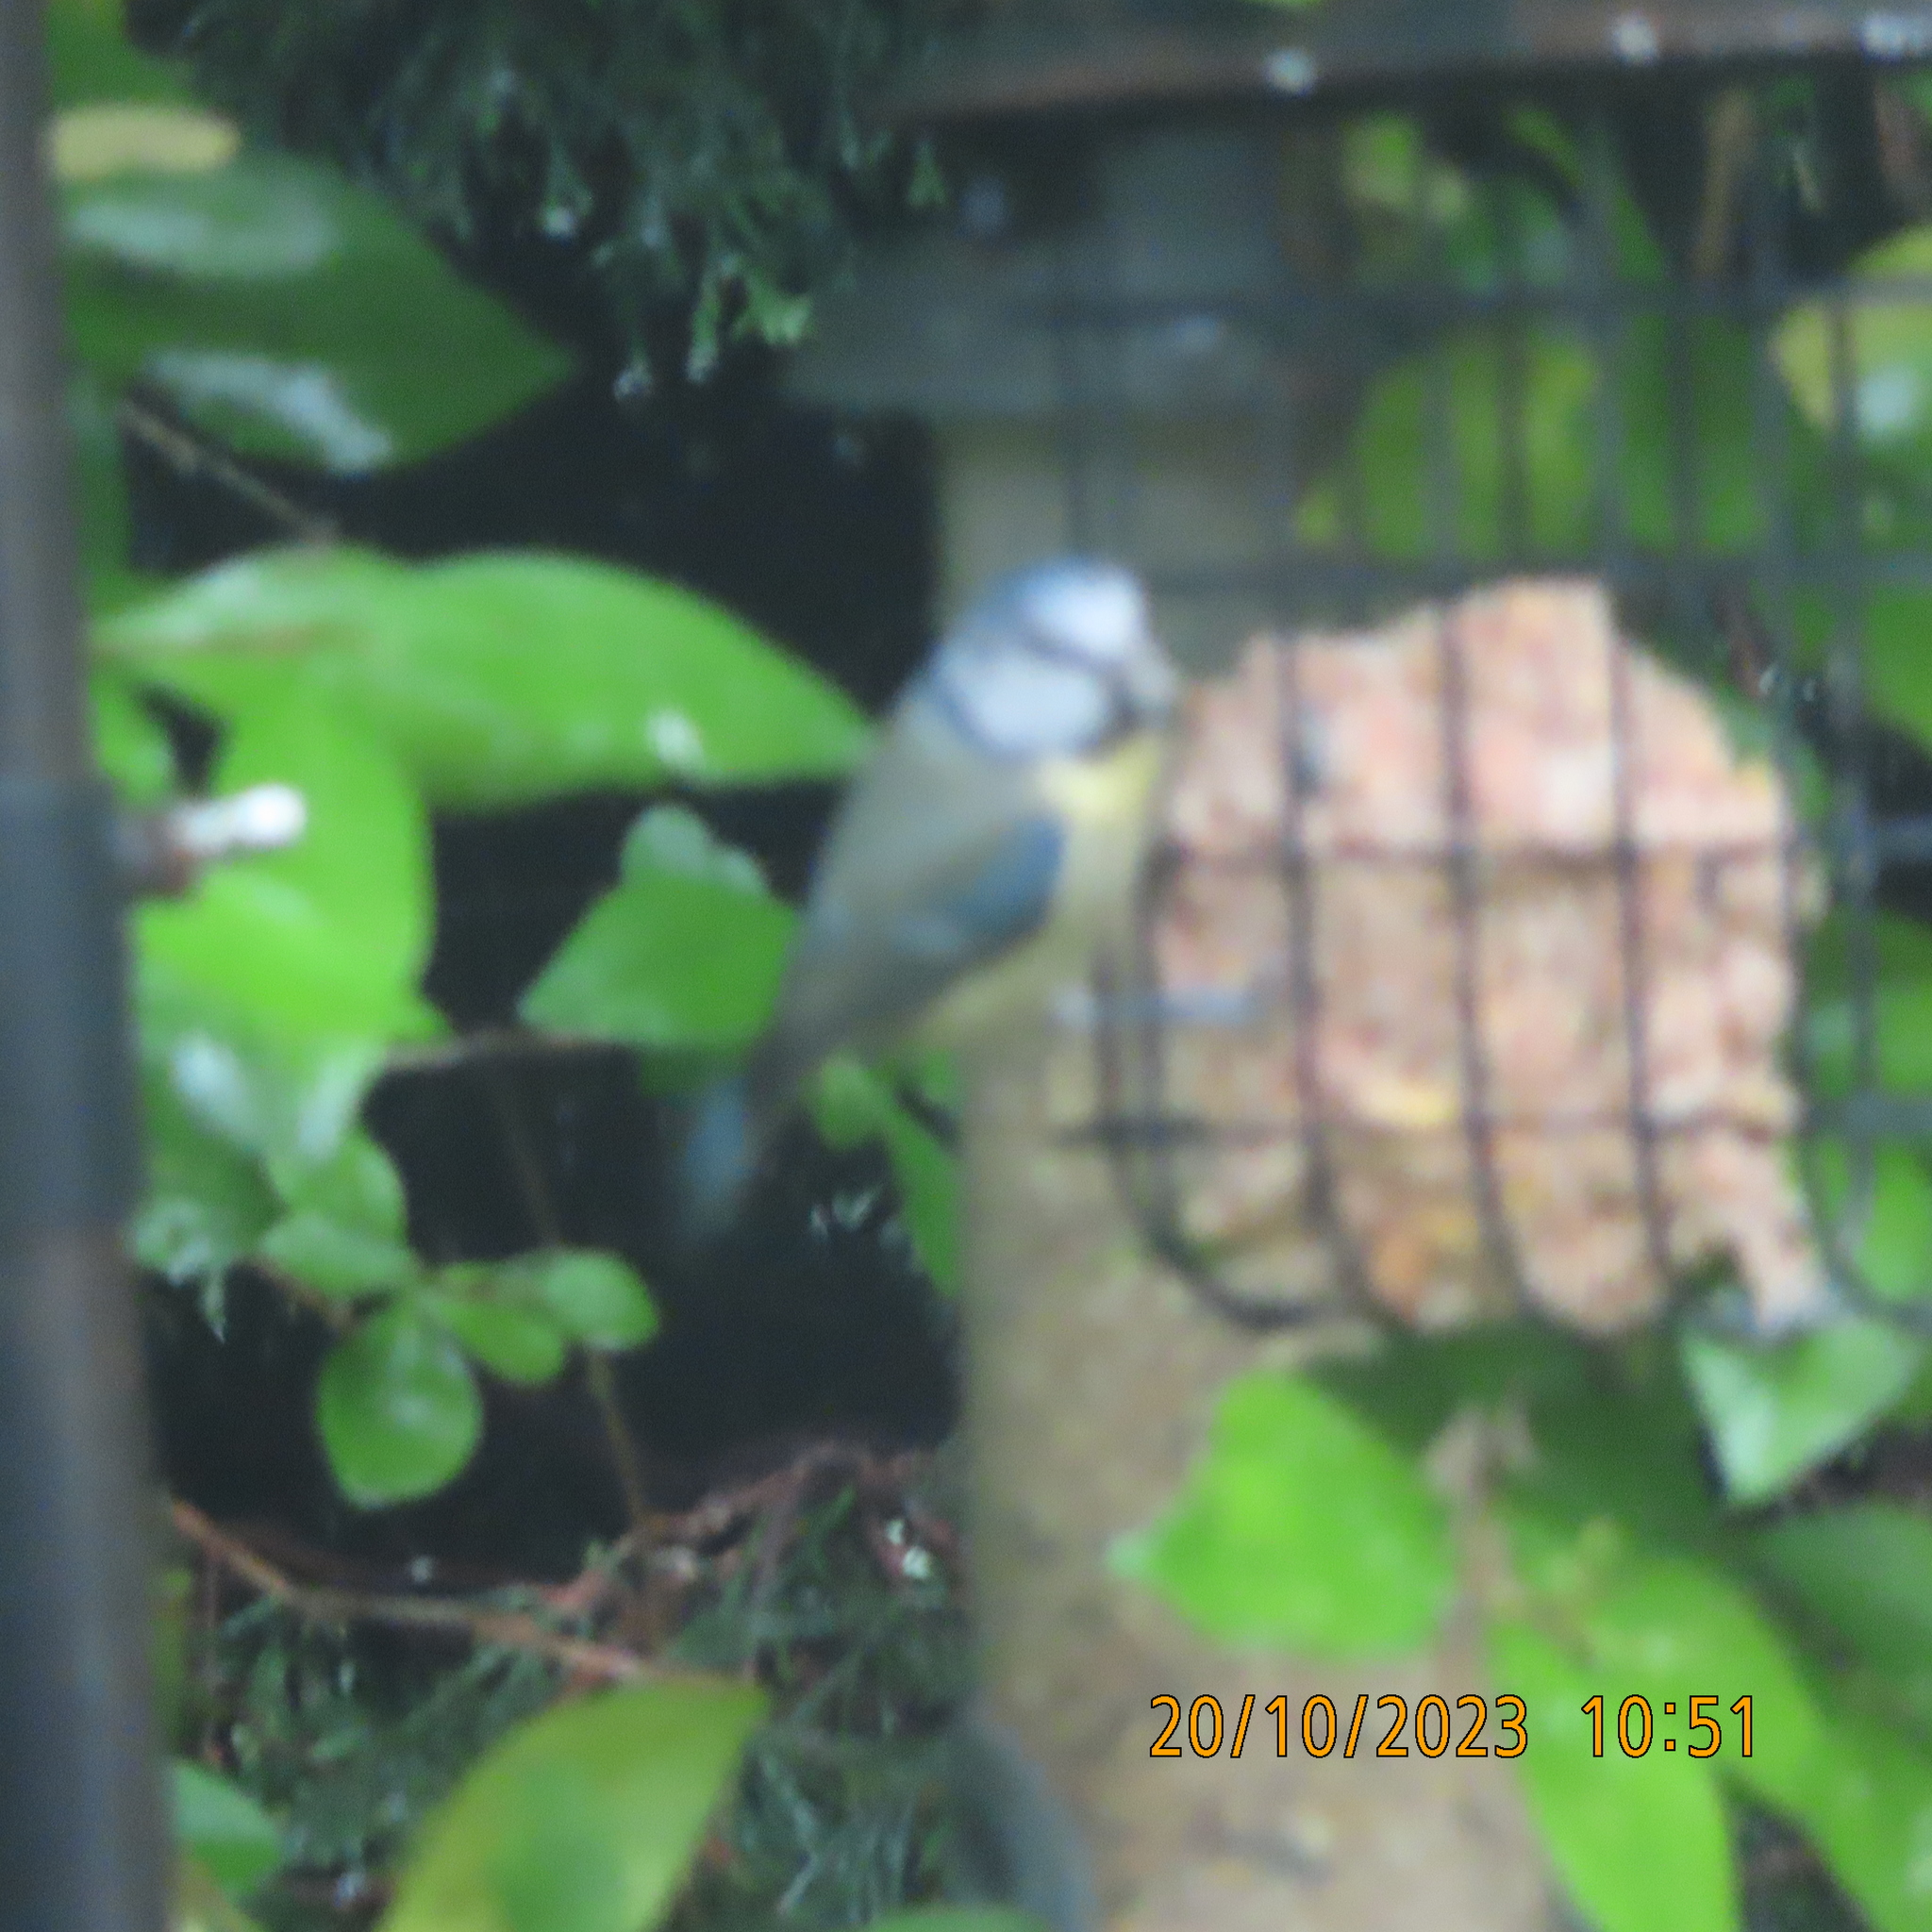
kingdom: Animalia
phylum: Chordata
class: Aves
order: Passeriformes
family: Paridae
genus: Cyanistes
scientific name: Cyanistes caeruleus
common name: Eurasian blue tit
